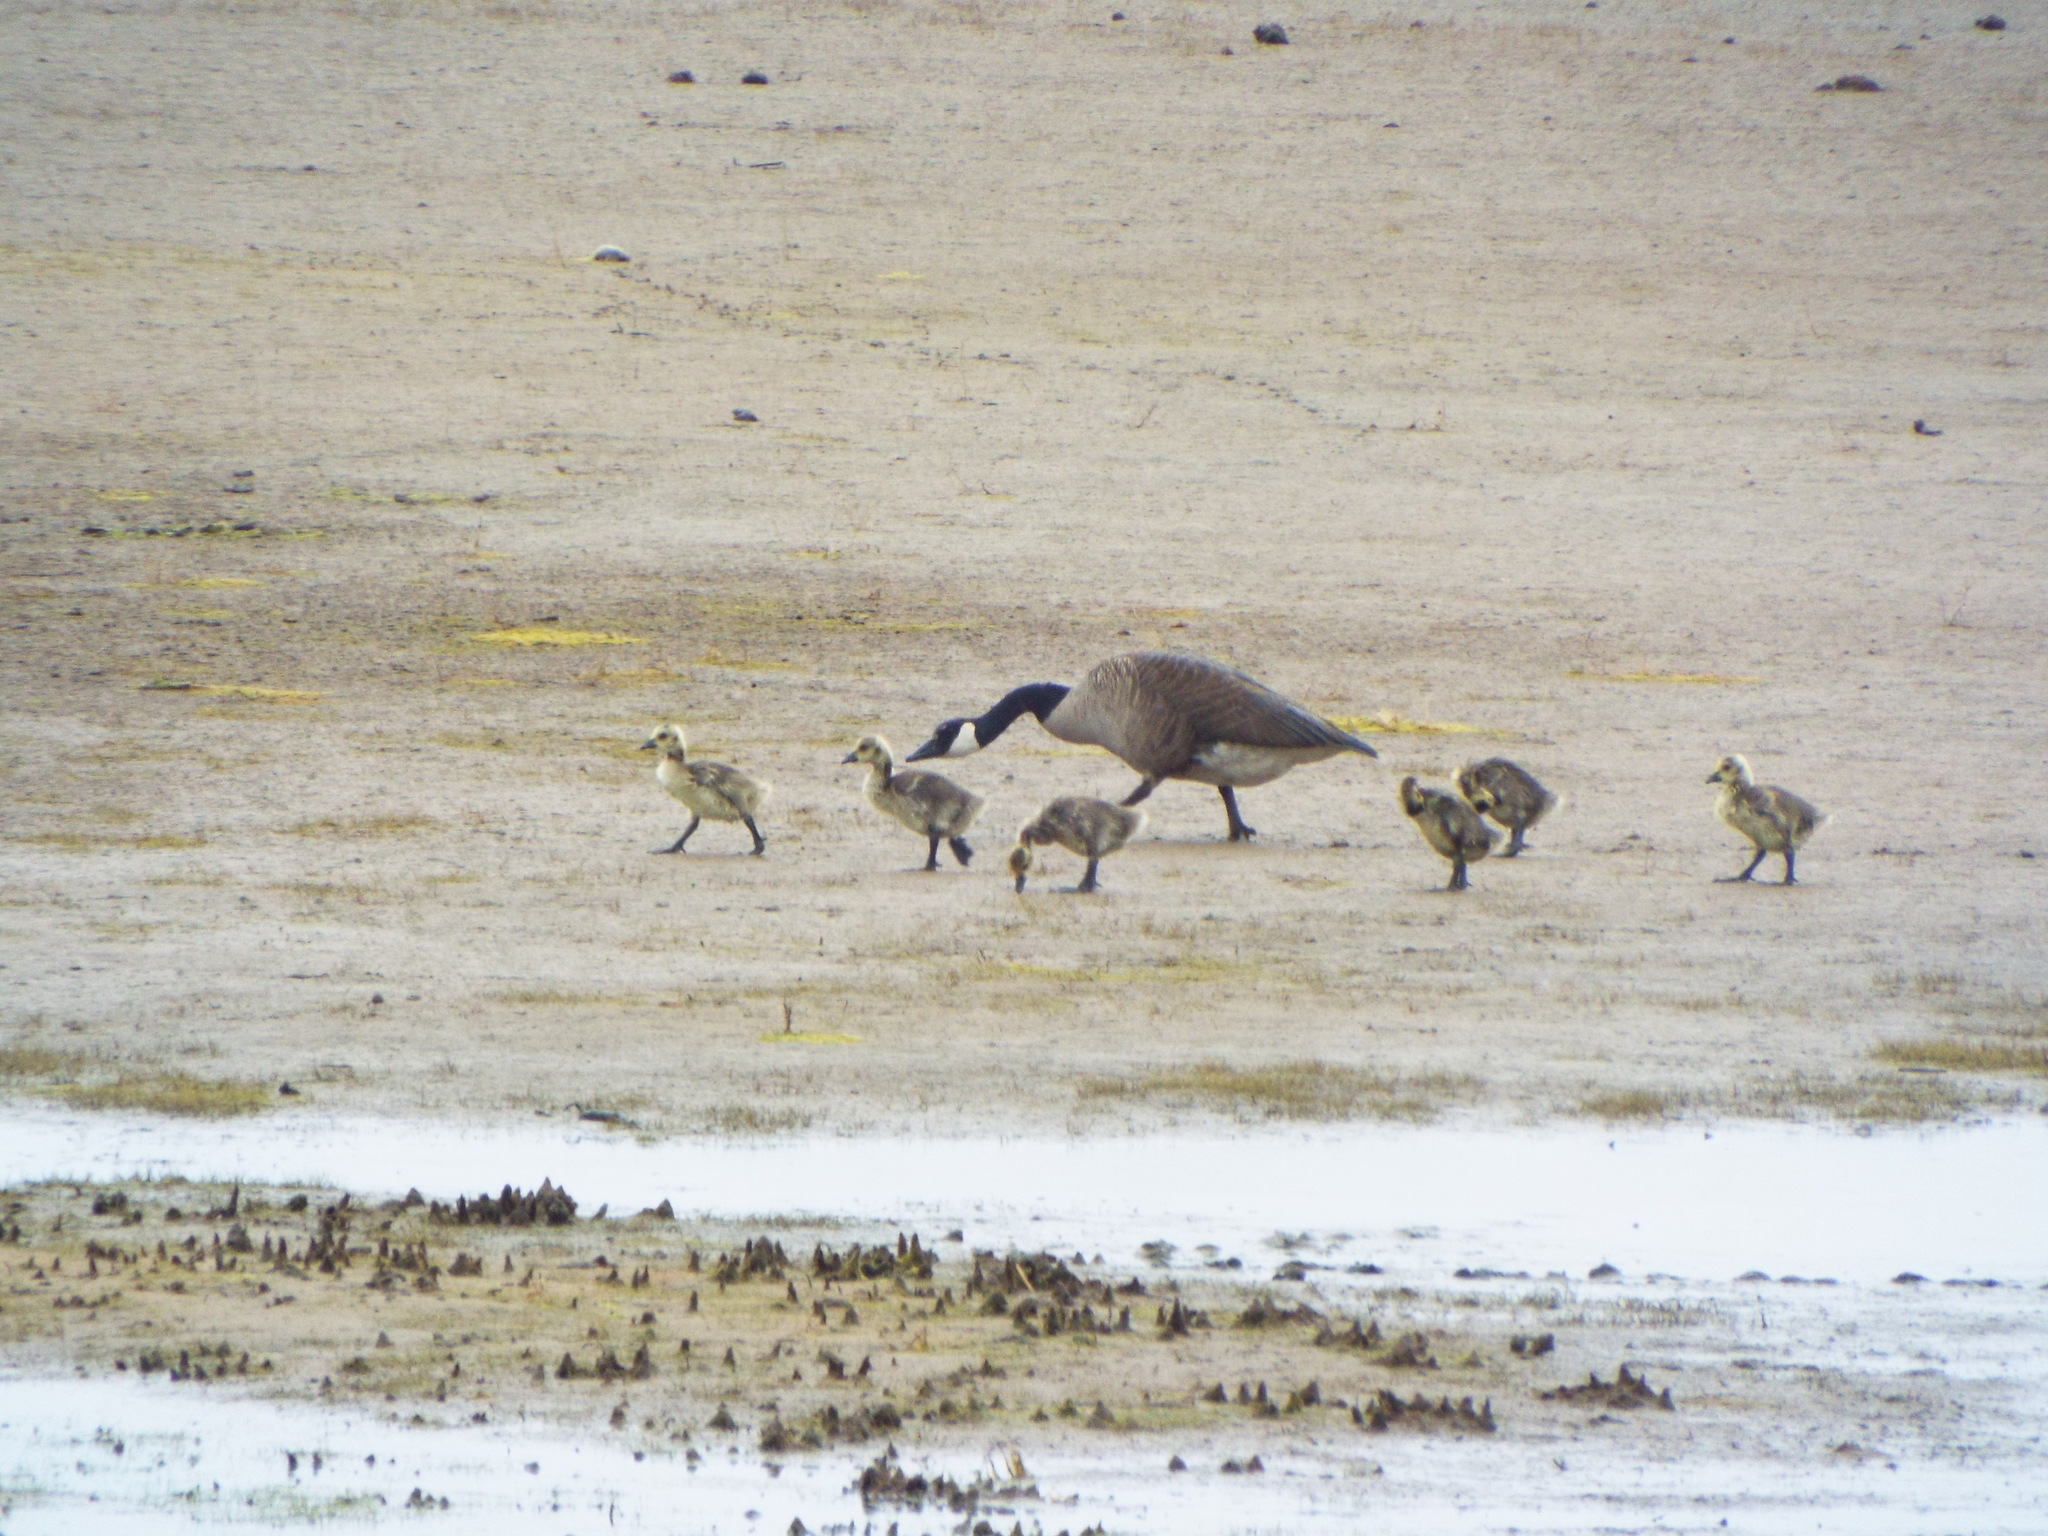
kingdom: Animalia
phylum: Chordata
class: Aves
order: Anseriformes
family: Anatidae
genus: Branta
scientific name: Branta canadensis
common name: Canada goose
